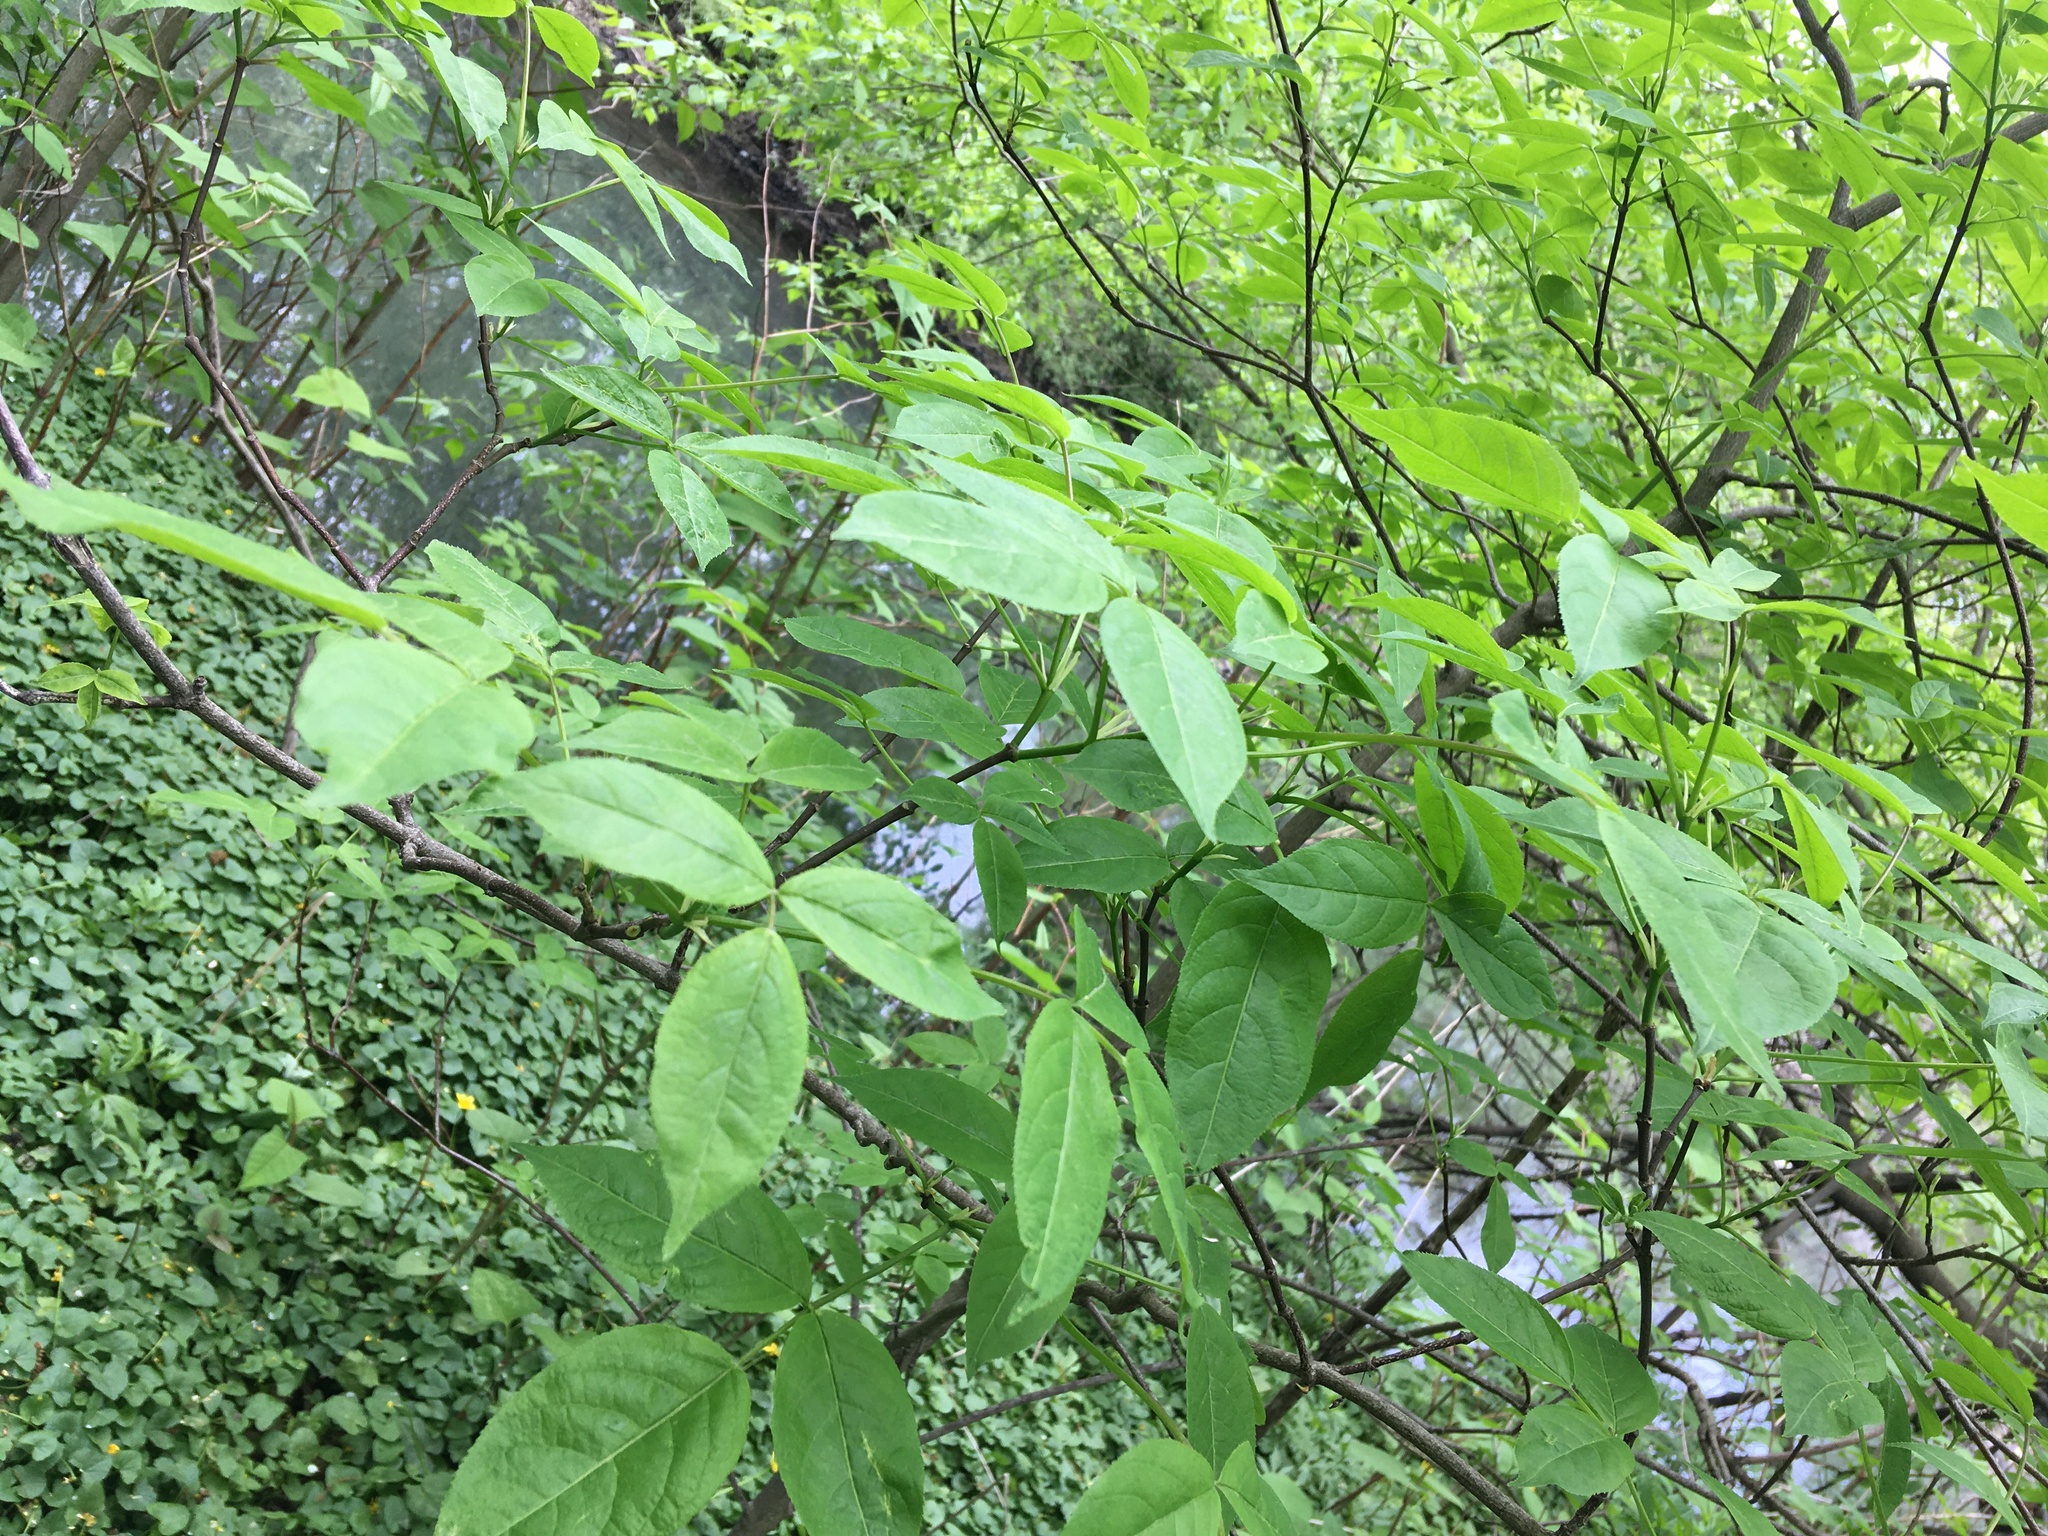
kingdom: Plantae
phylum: Tracheophyta
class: Magnoliopsida
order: Crossosomatales
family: Staphyleaceae
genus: Staphylea
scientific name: Staphylea trifolia
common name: American bladdernut
